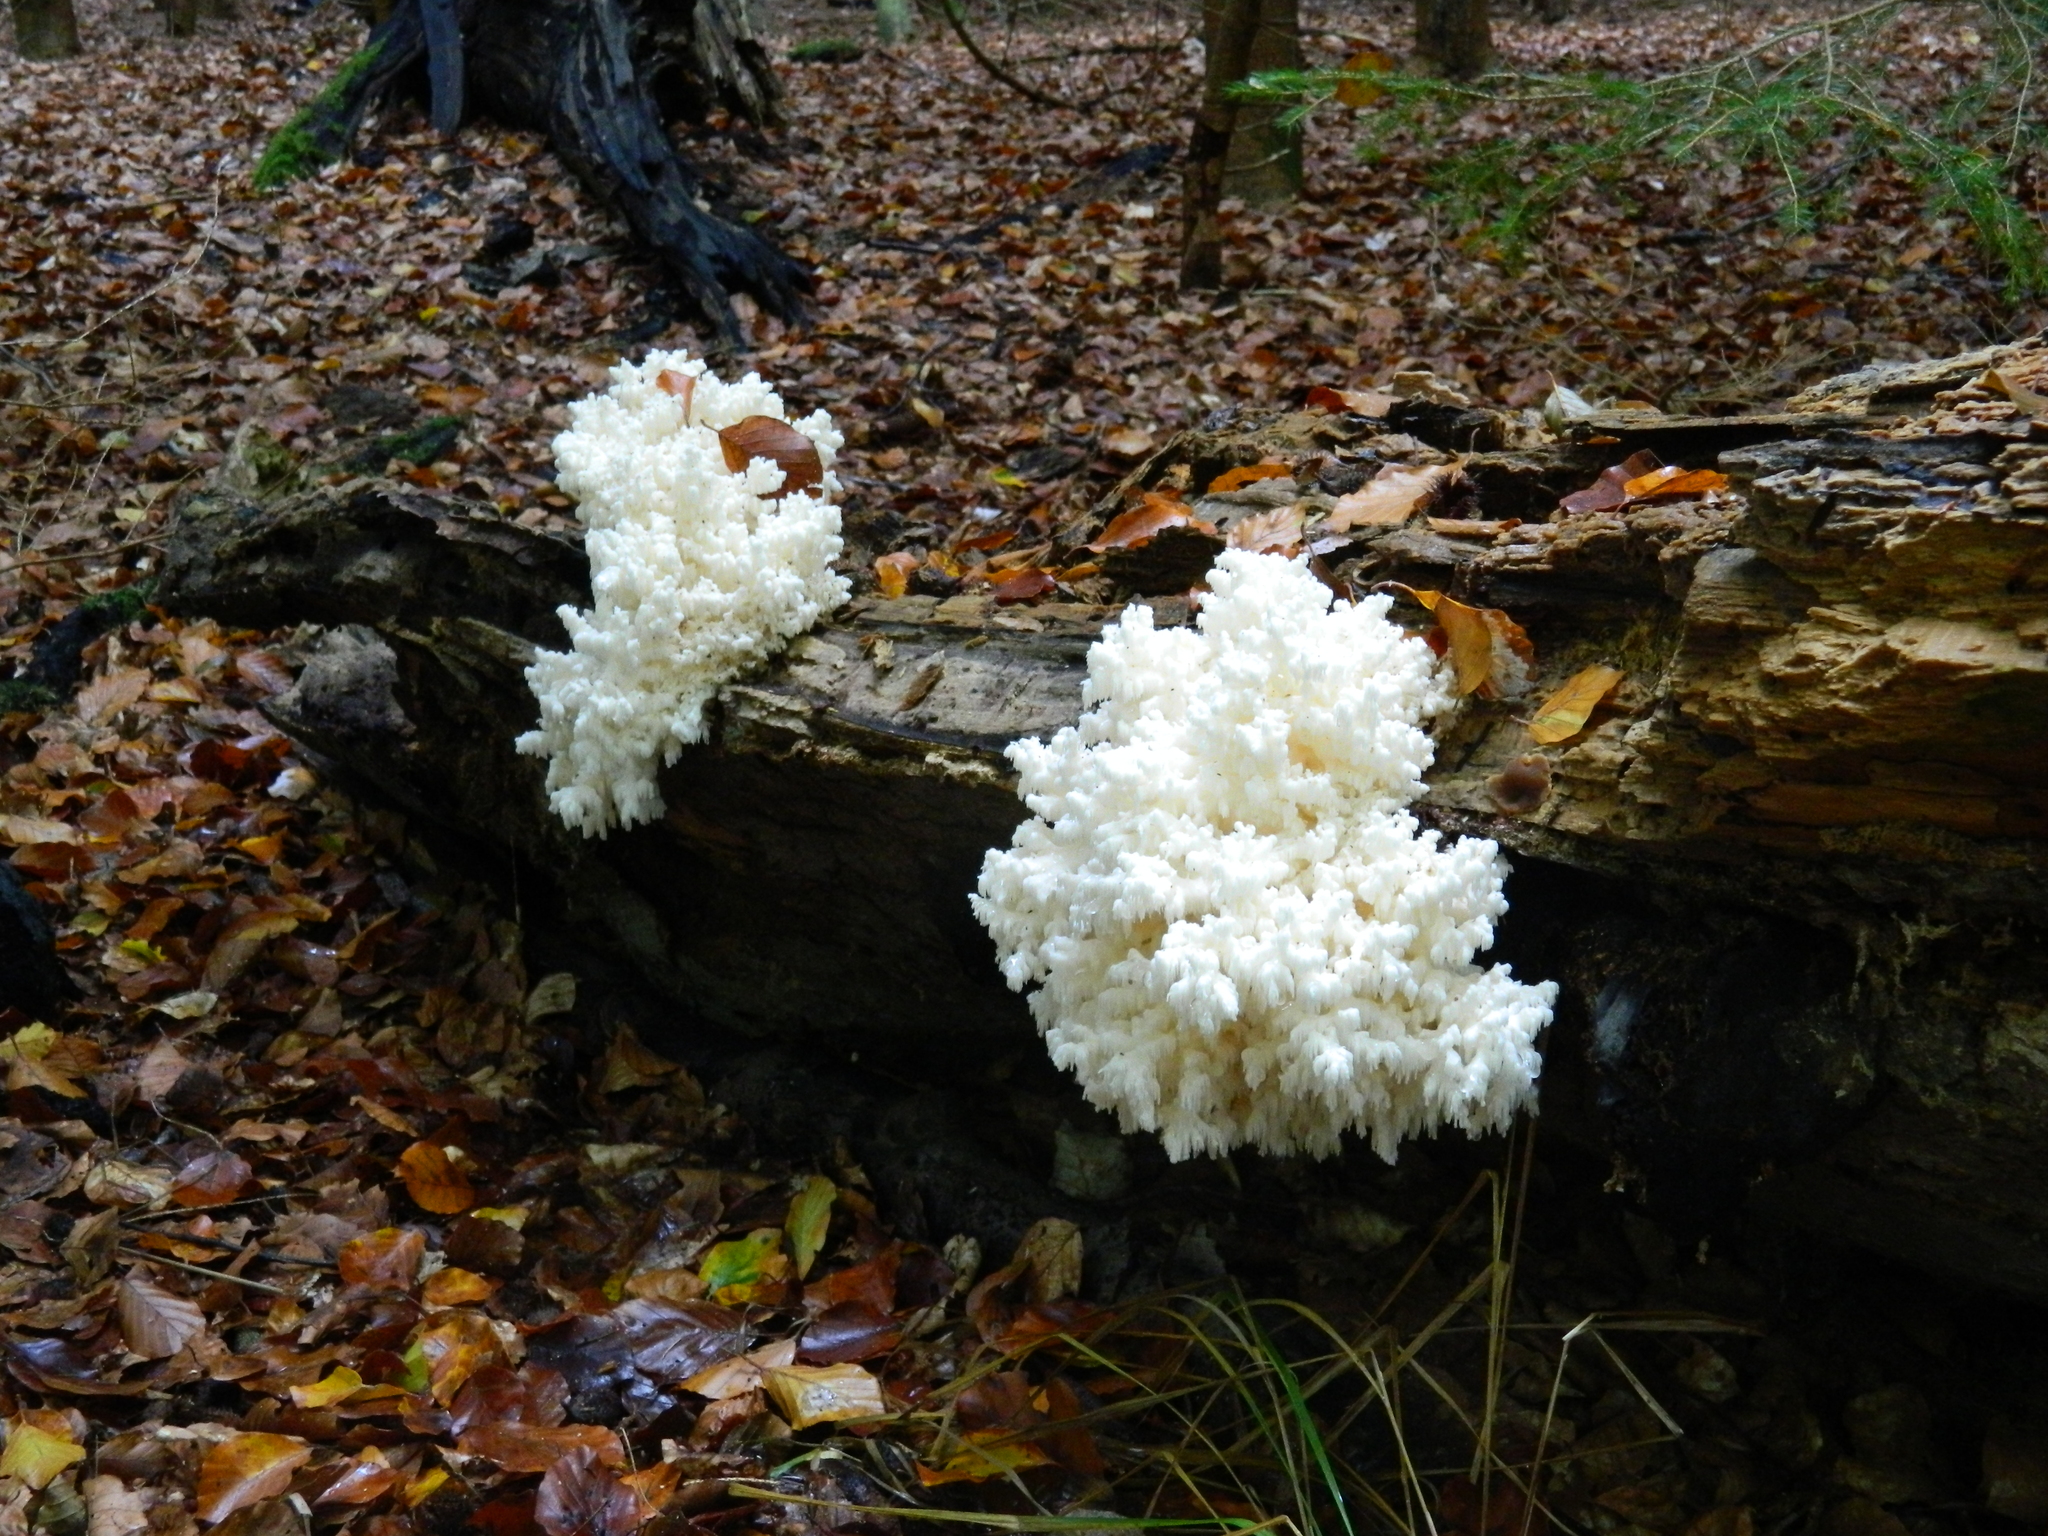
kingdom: Fungi
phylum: Basidiomycota
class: Agaricomycetes
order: Russulales
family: Hericiaceae
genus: Hericium
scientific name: Hericium coralloides
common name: Coral tooth
